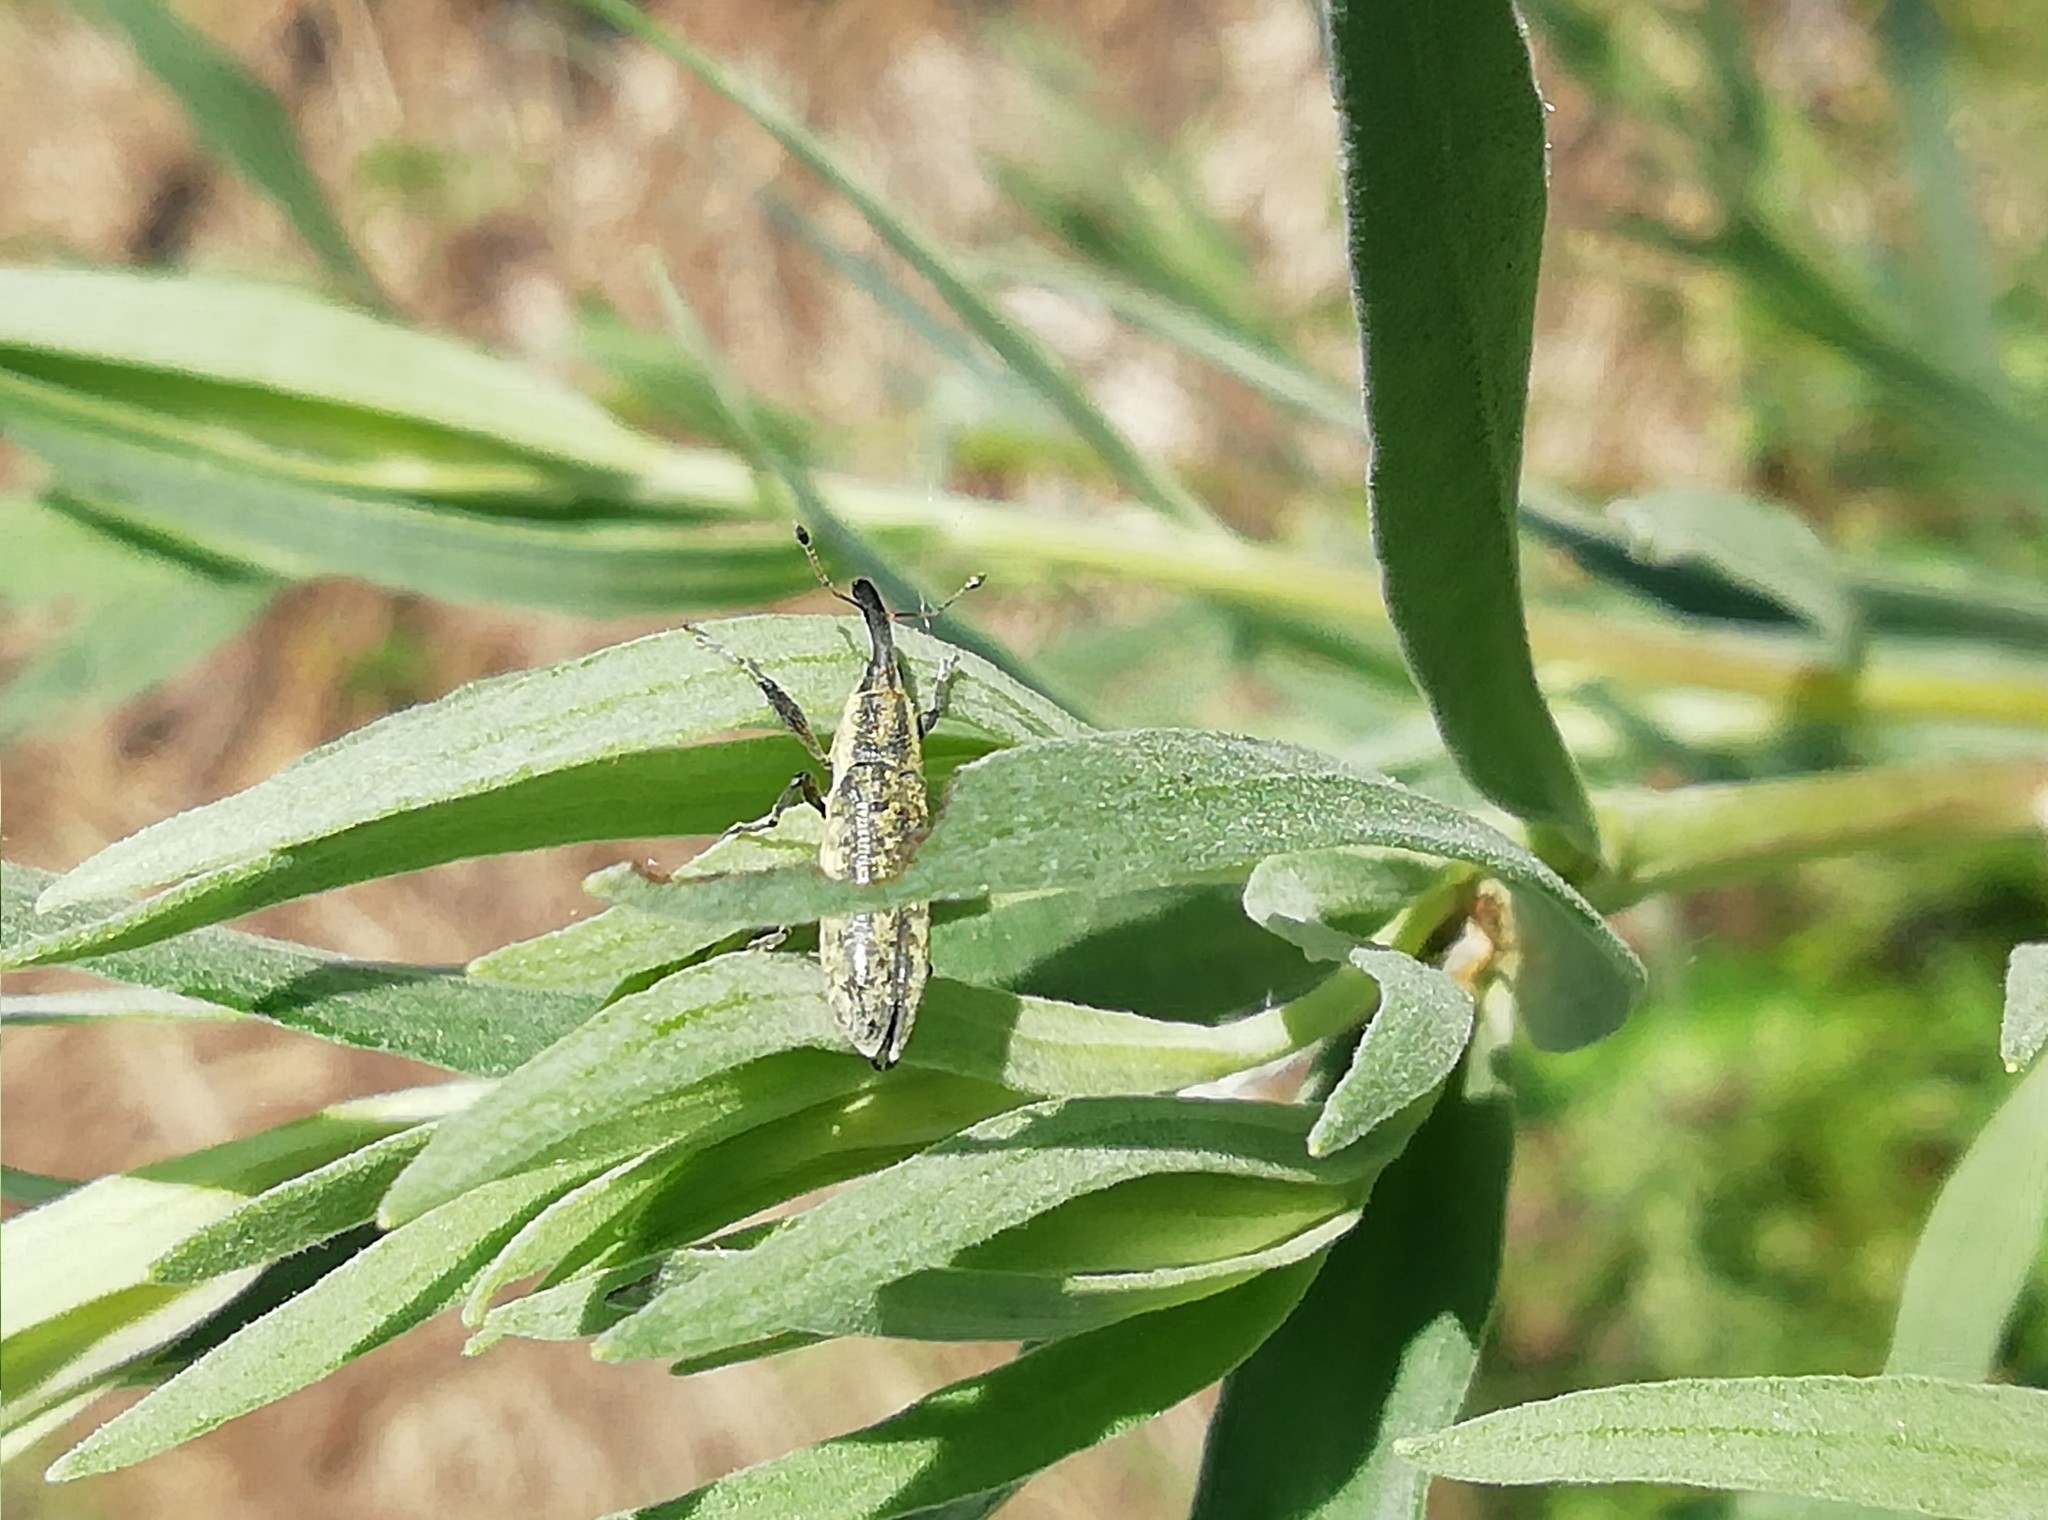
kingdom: Animalia
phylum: Arthropoda
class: Insecta
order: Coleoptera
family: Curculionidae
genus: Lixus
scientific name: Lixus fasciculatus
